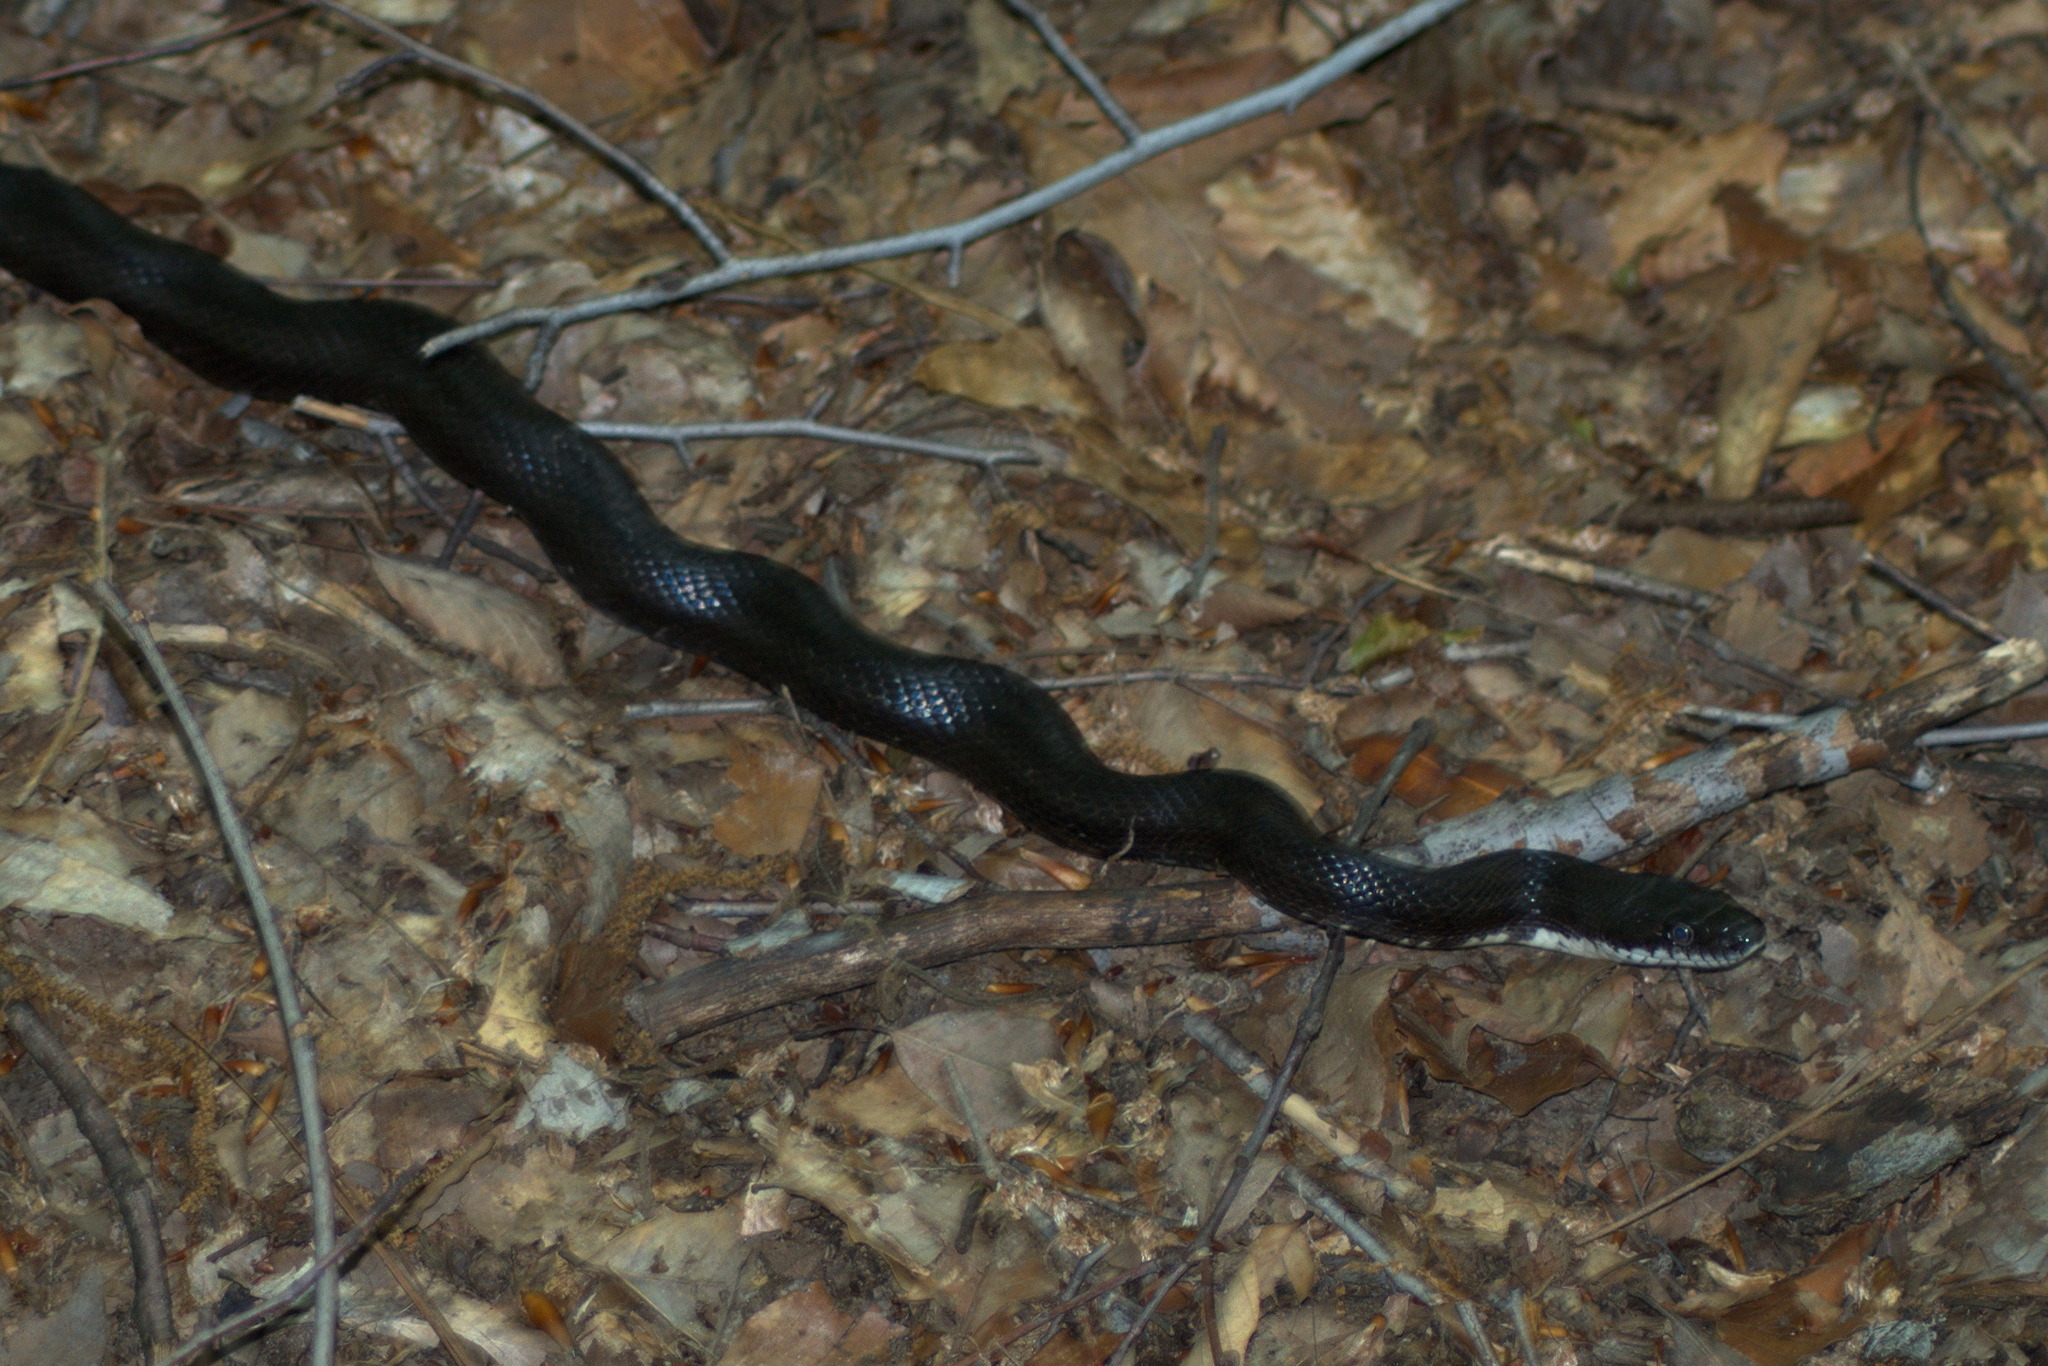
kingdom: Animalia
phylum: Chordata
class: Squamata
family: Colubridae
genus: Pantherophis
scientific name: Pantherophis alleghaniensis
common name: Eastern rat snake
